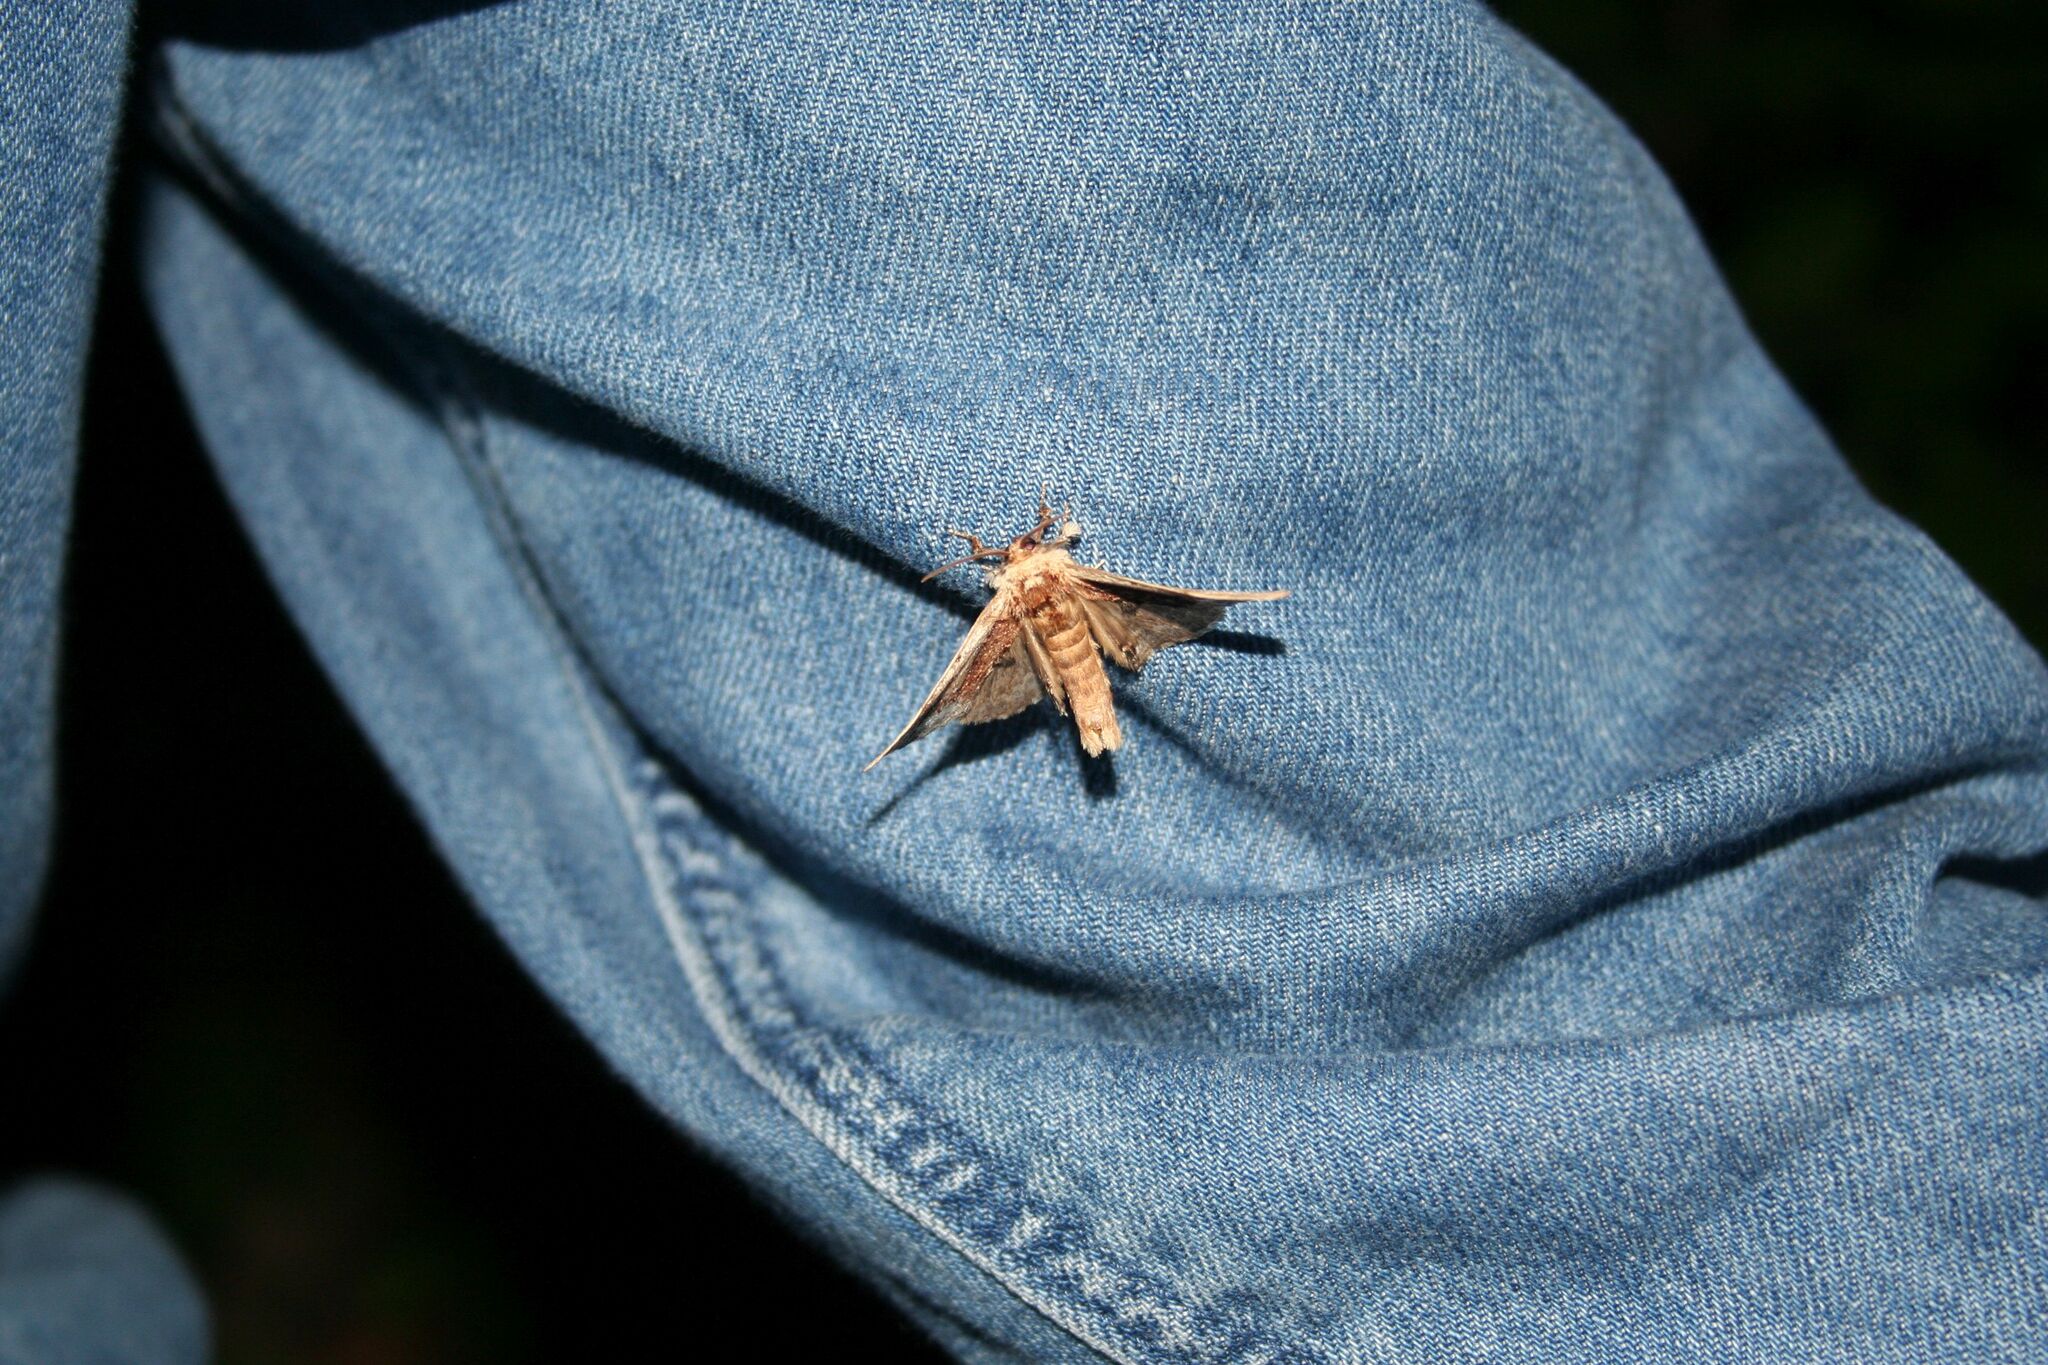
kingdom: Animalia
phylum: Arthropoda
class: Insecta
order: Lepidoptera
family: Notodontidae
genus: Ptilodon
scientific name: Ptilodon cucullina
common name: Maple prominent
